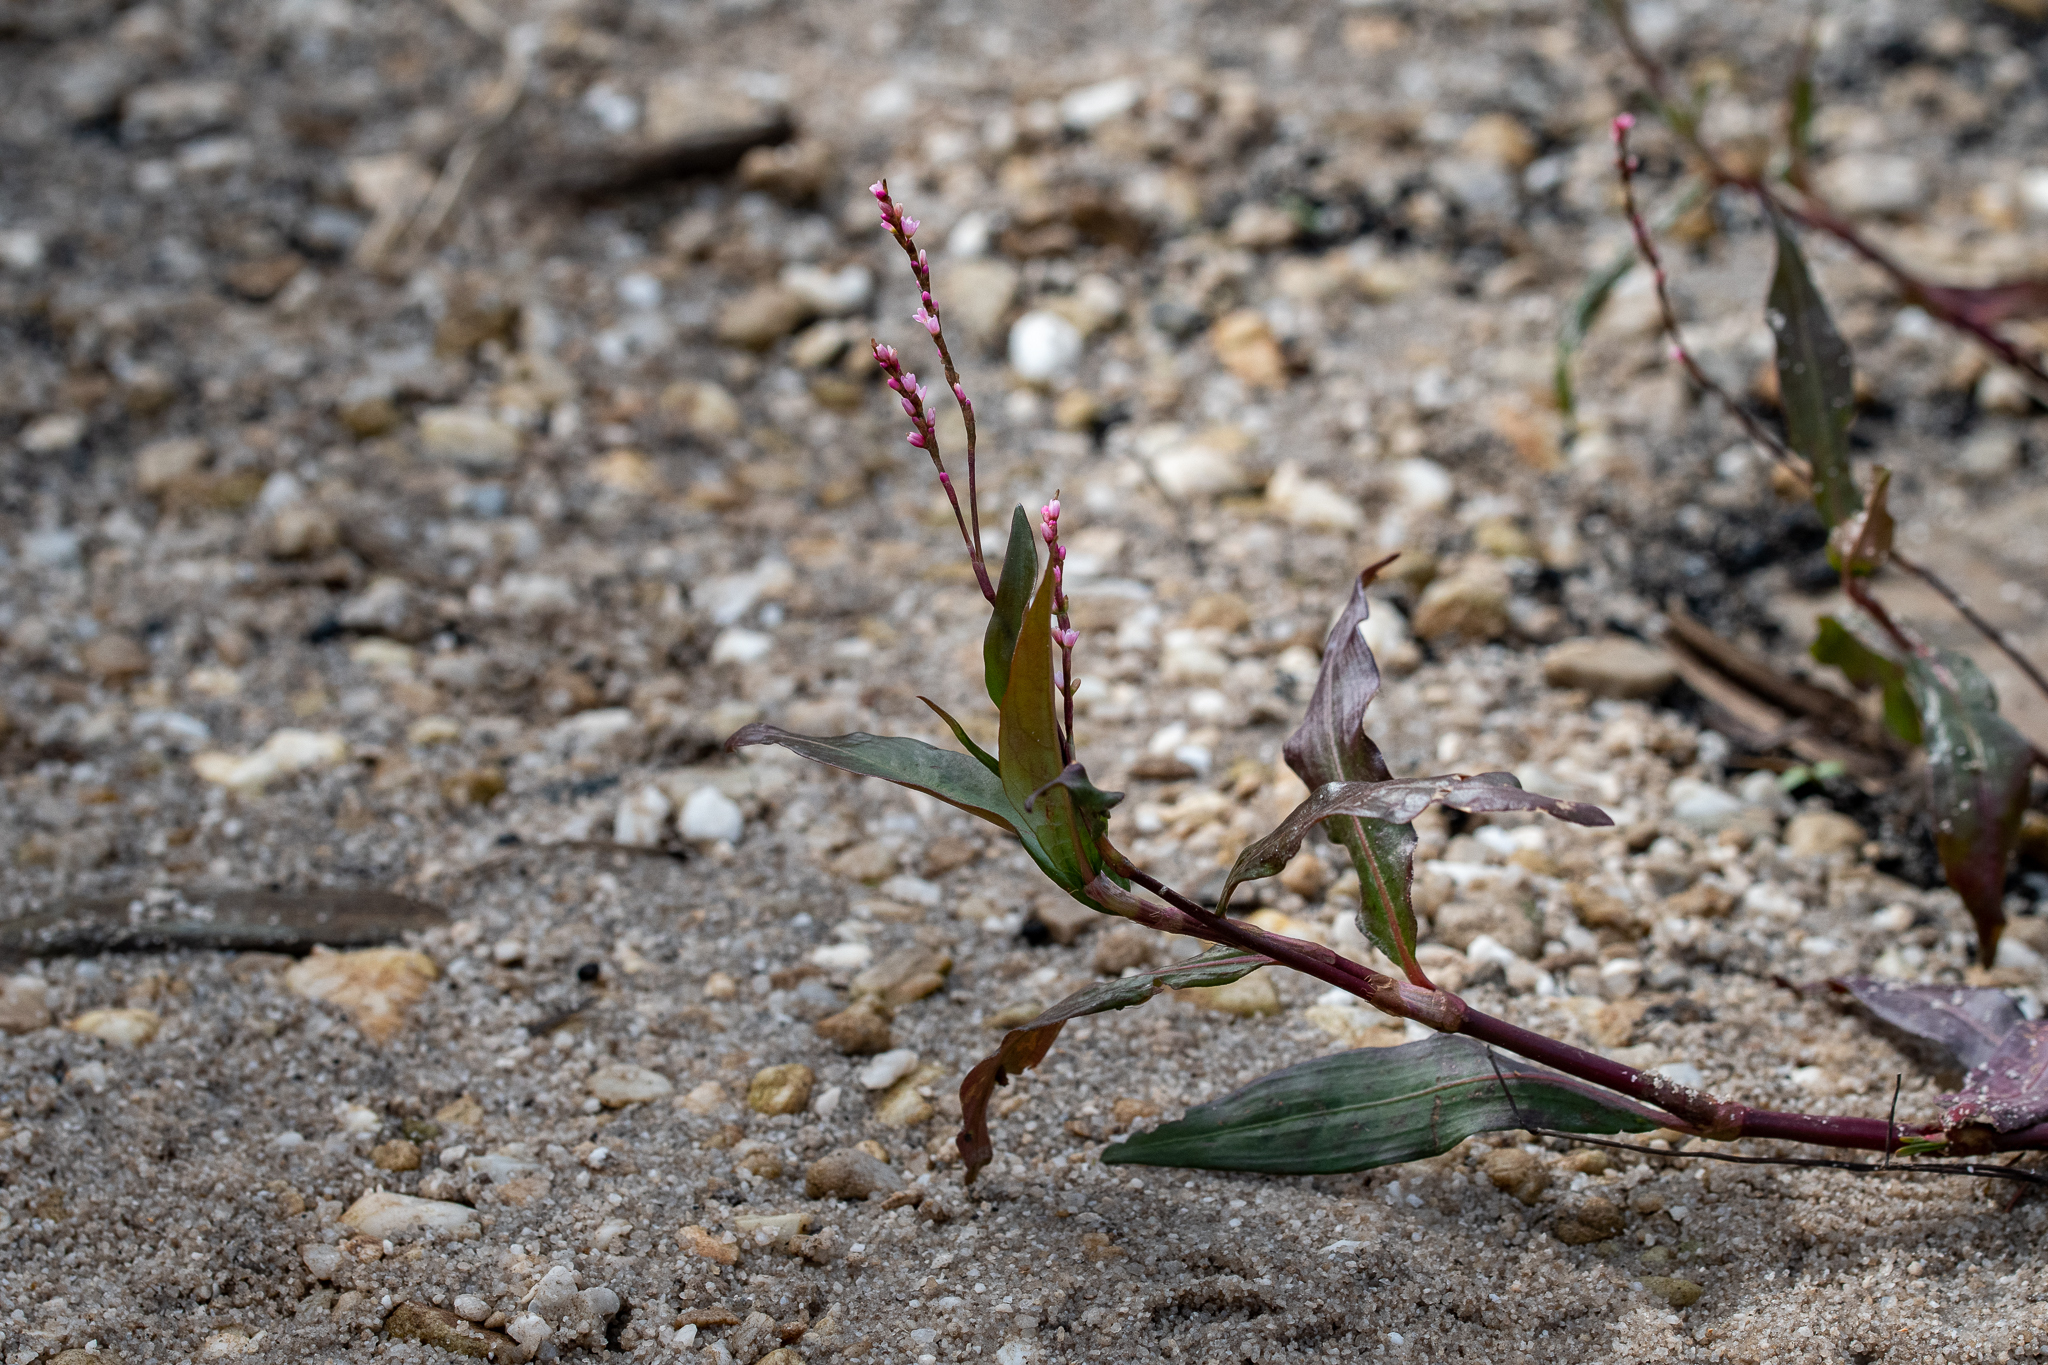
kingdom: Plantae
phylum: Tracheophyta
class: Magnoliopsida
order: Caryophyllales
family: Polygonaceae
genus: Persicaria
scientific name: Persicaria decipiens
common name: Willow-weed
